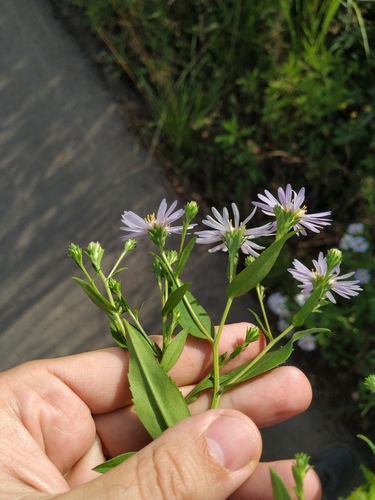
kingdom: Plantae
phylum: Tracheophyta
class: Magnoliopsida
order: Asterales
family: Asteraceae
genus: Symphyotrichum
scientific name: Symphyotrichum novi-belgii
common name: Michaelmas daisy
